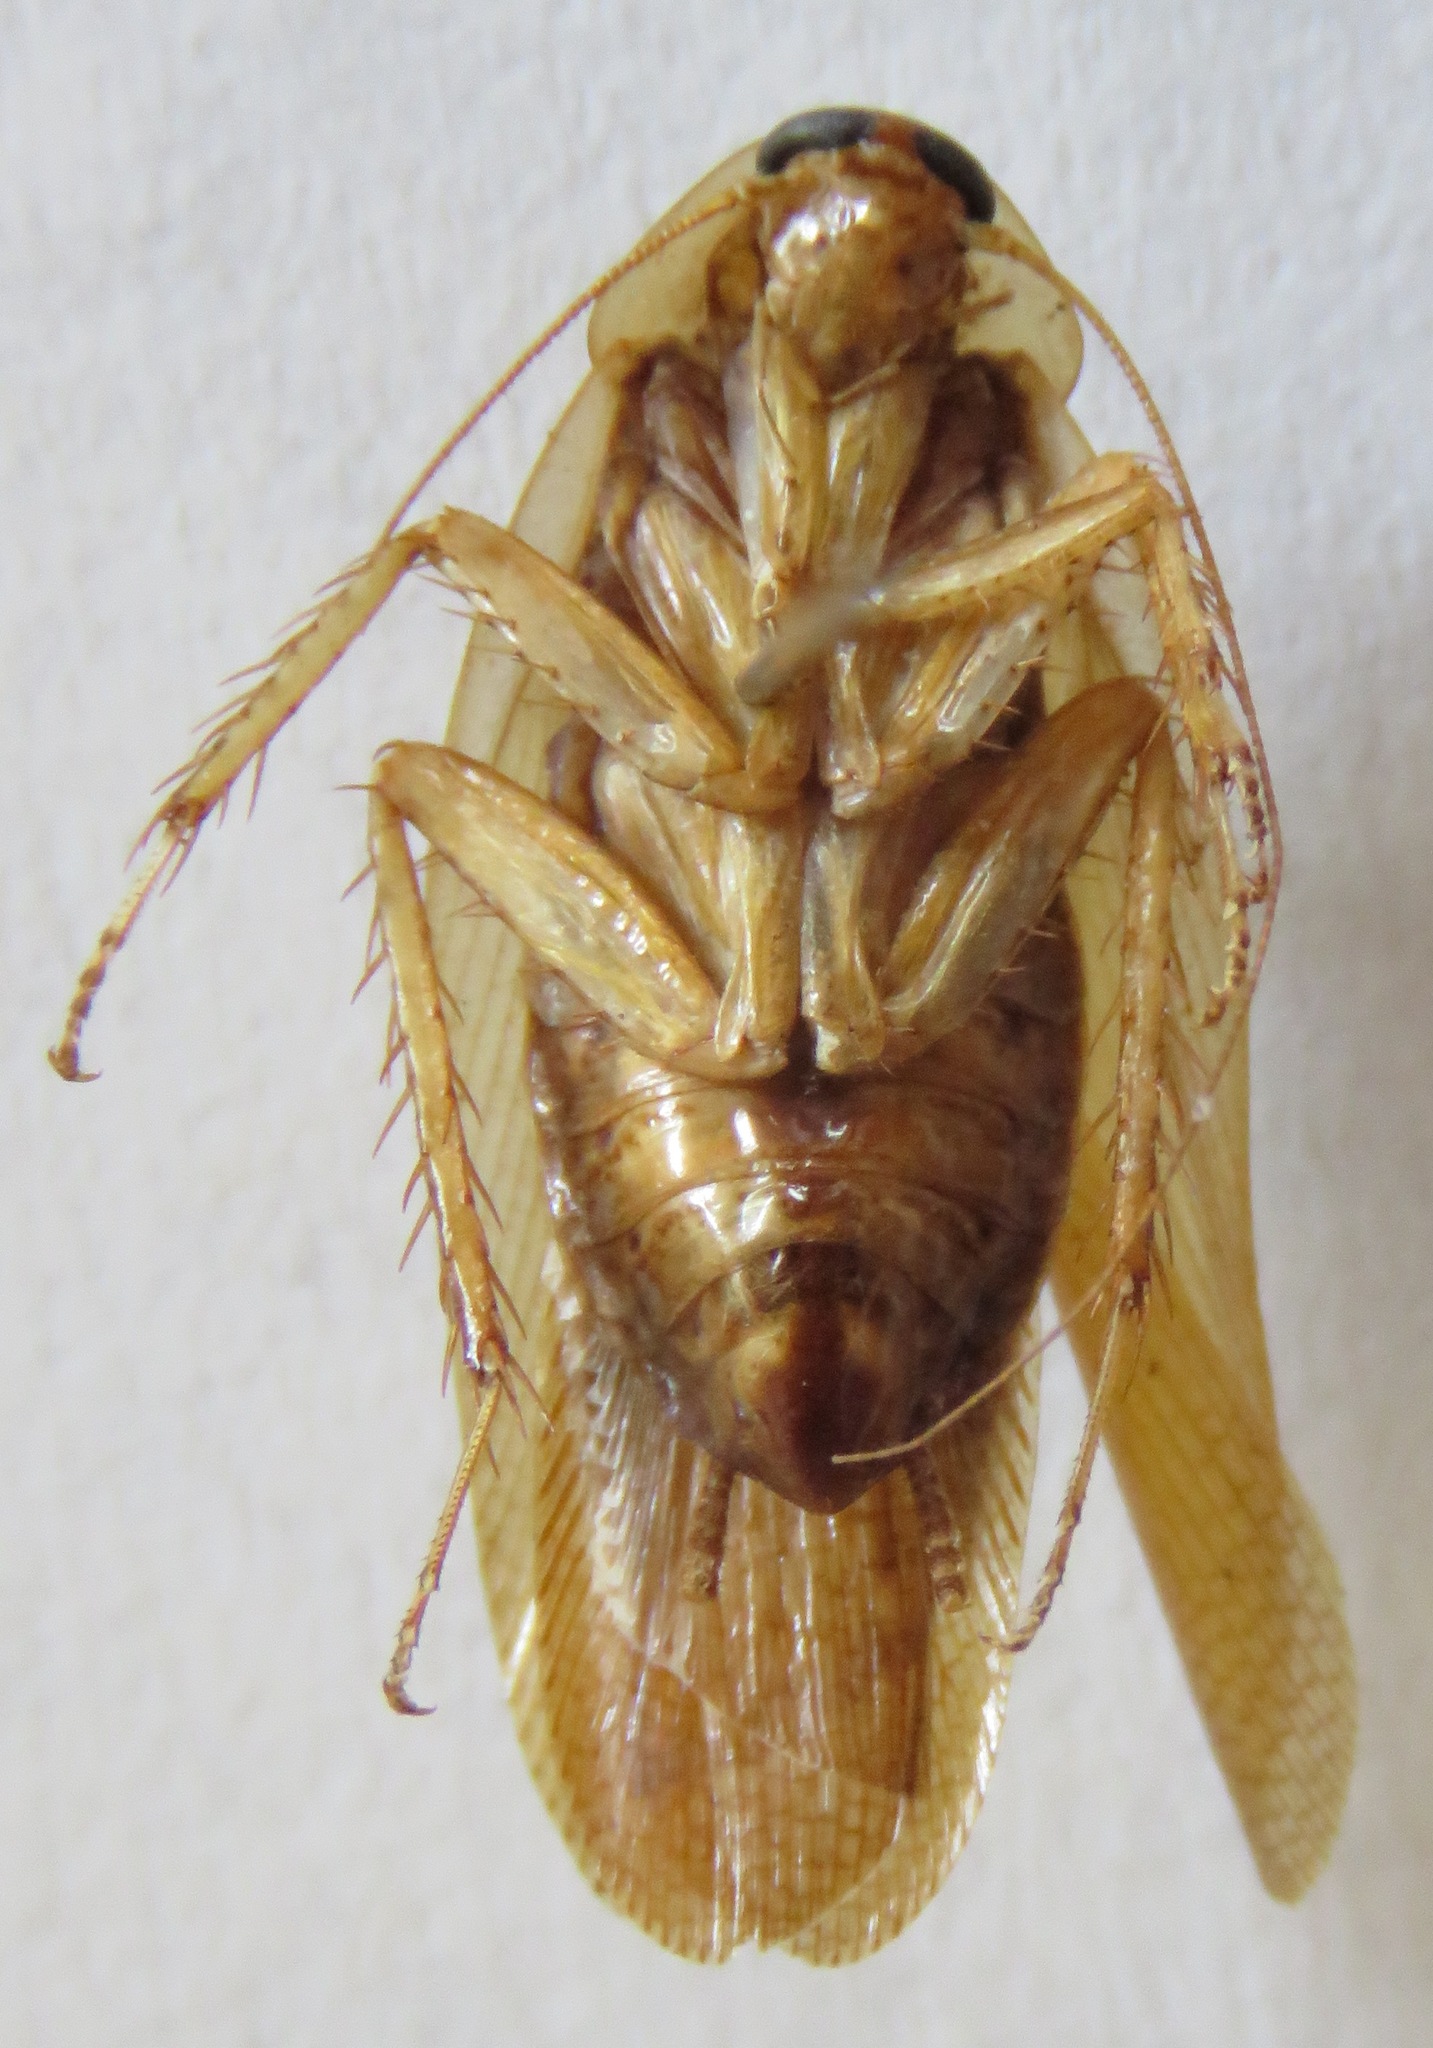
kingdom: Animalia
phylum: Arthropoda
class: Insecta
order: Blattodea
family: Ectobiidae
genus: Latiblattella
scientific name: Latiblattella angustifrons
